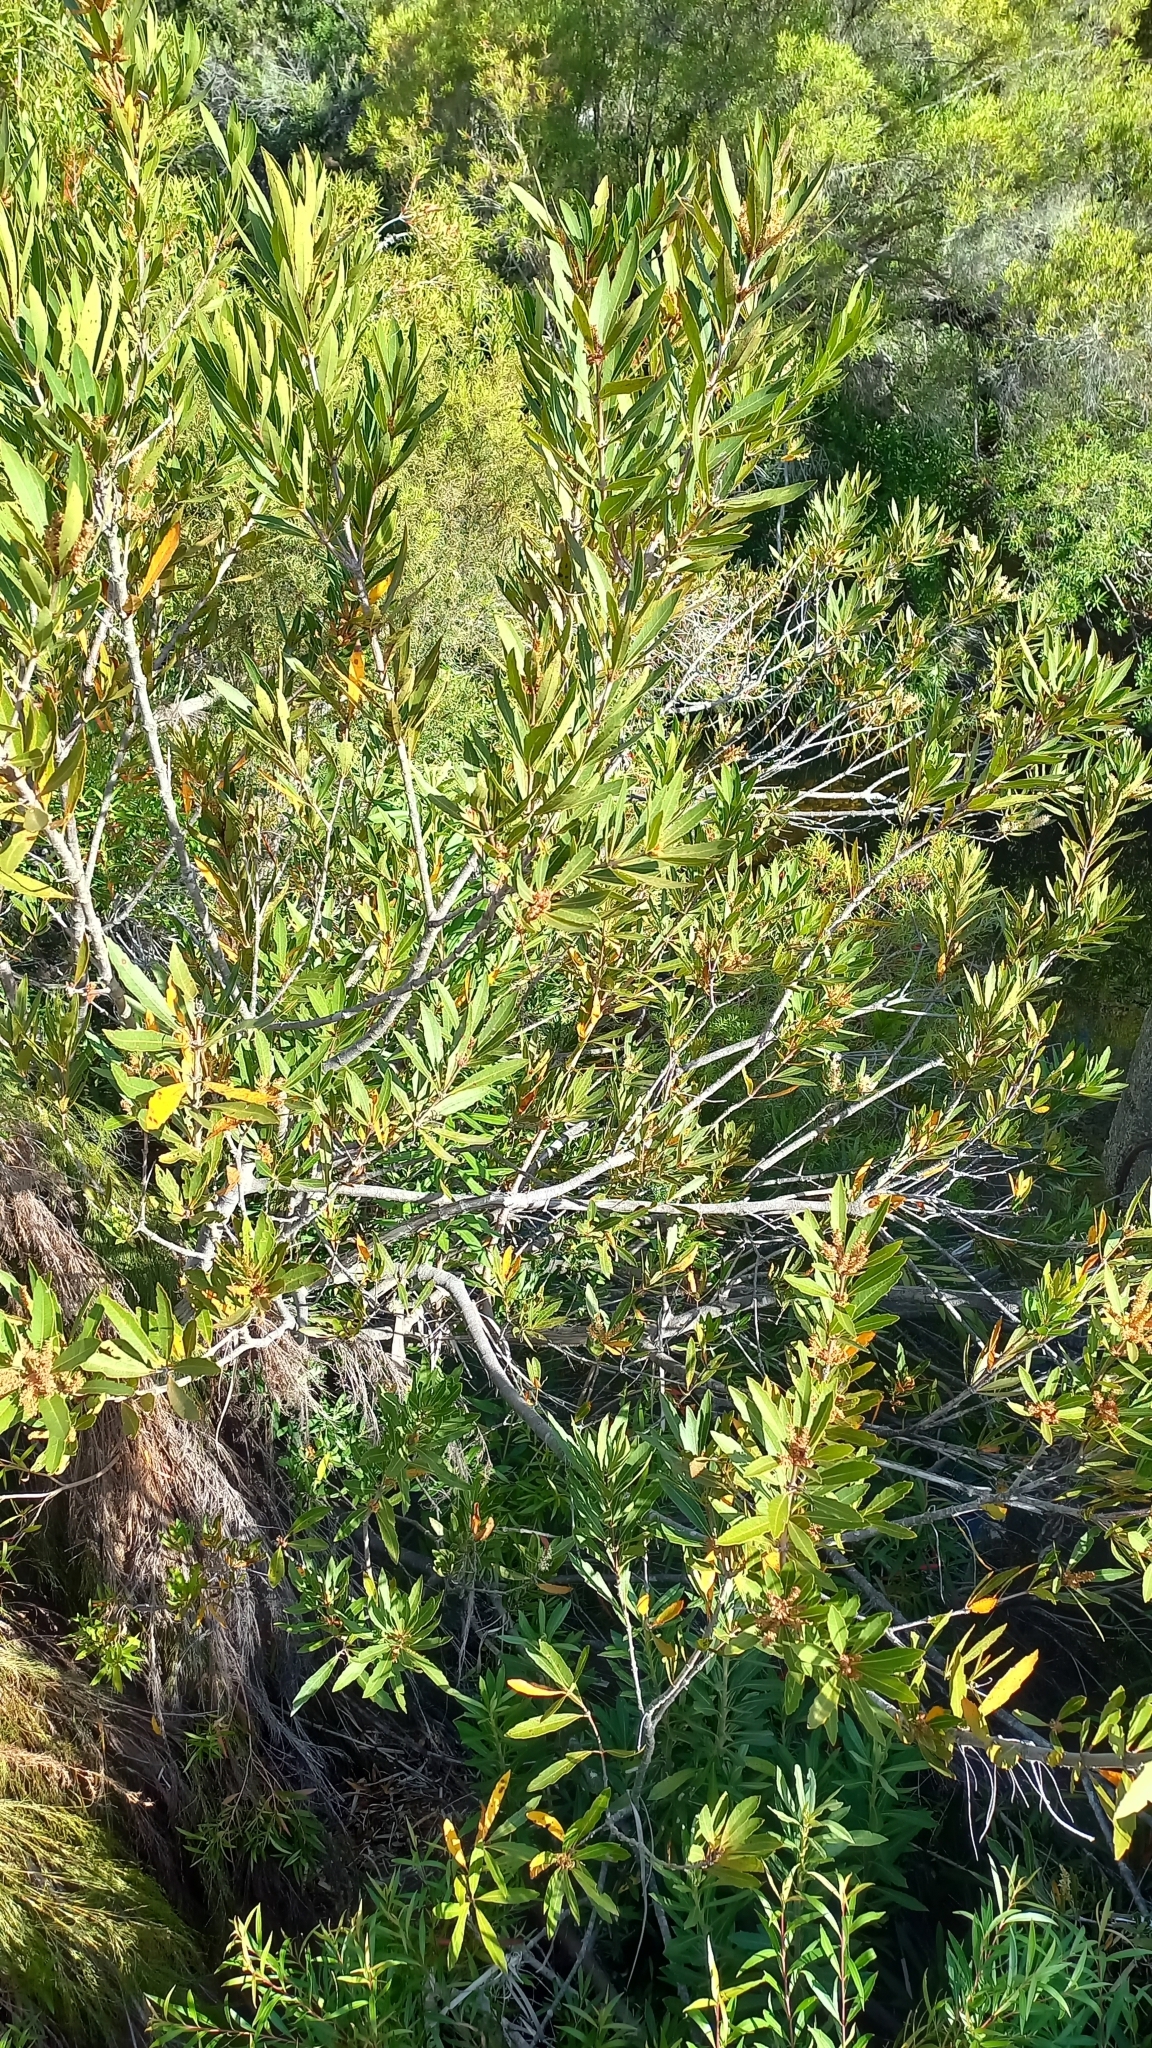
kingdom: Plantae
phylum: Tracheophyta
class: Magnoliopsida
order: Proteales
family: Proteaceae
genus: Brabejum
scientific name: Brabejum stellatifolium
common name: Wild almond
